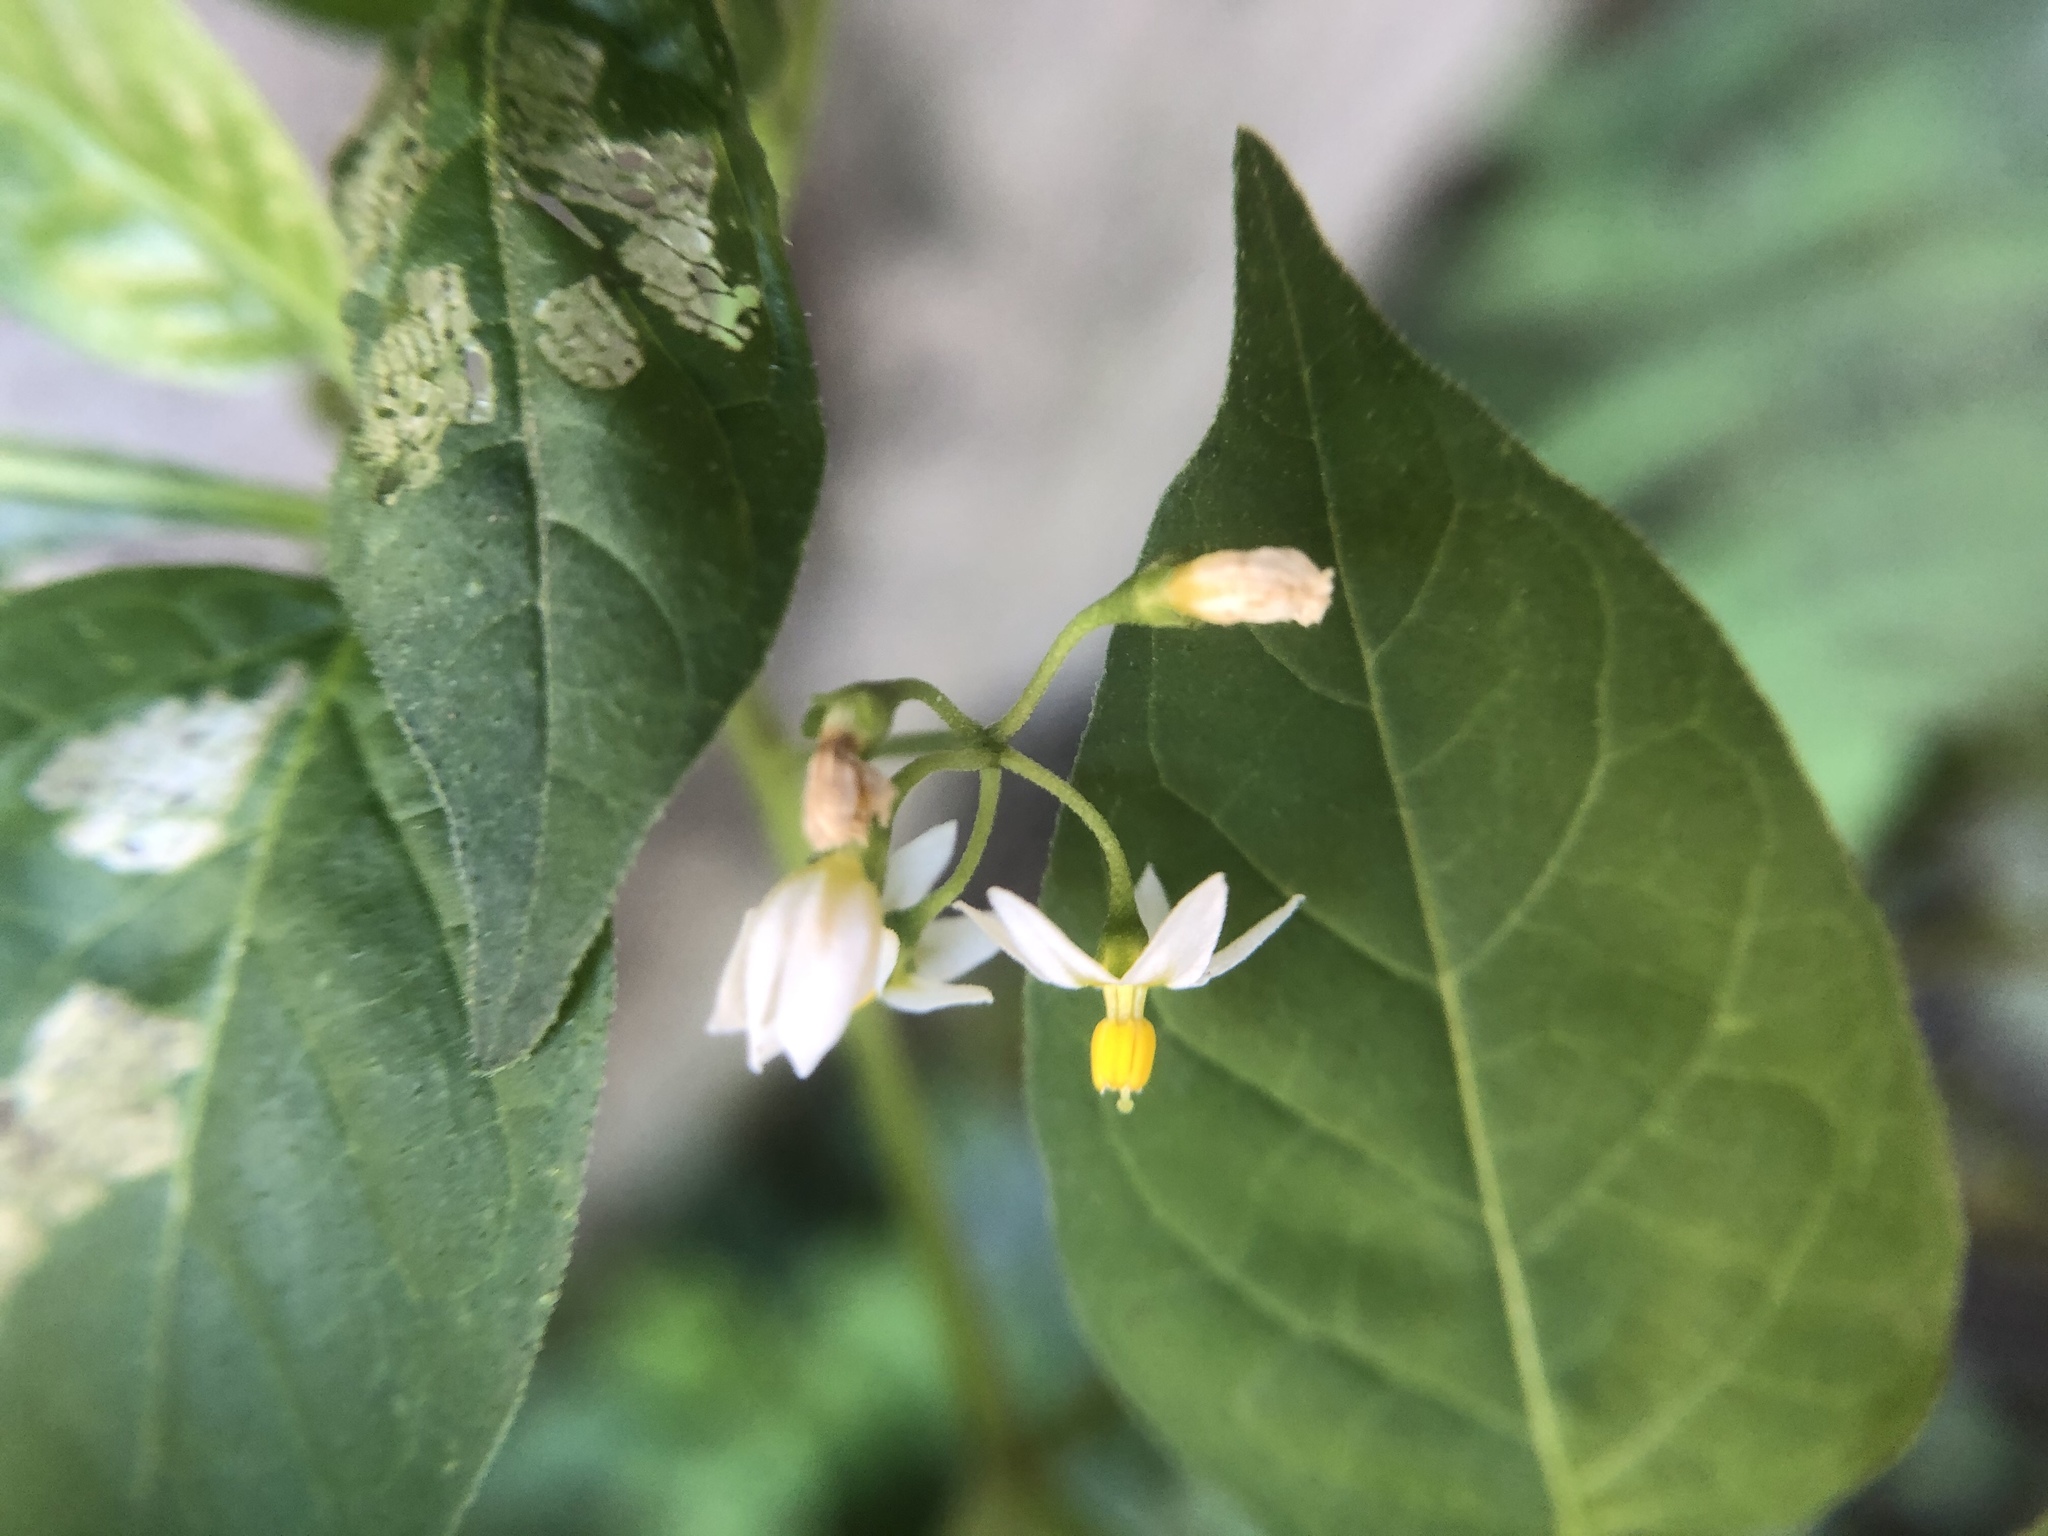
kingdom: Plantae
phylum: Tracheophyta
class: Magnoliopsida
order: Solanales
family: Solanaceae
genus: Solanum
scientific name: Solanum nigrum
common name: Black nightshade
